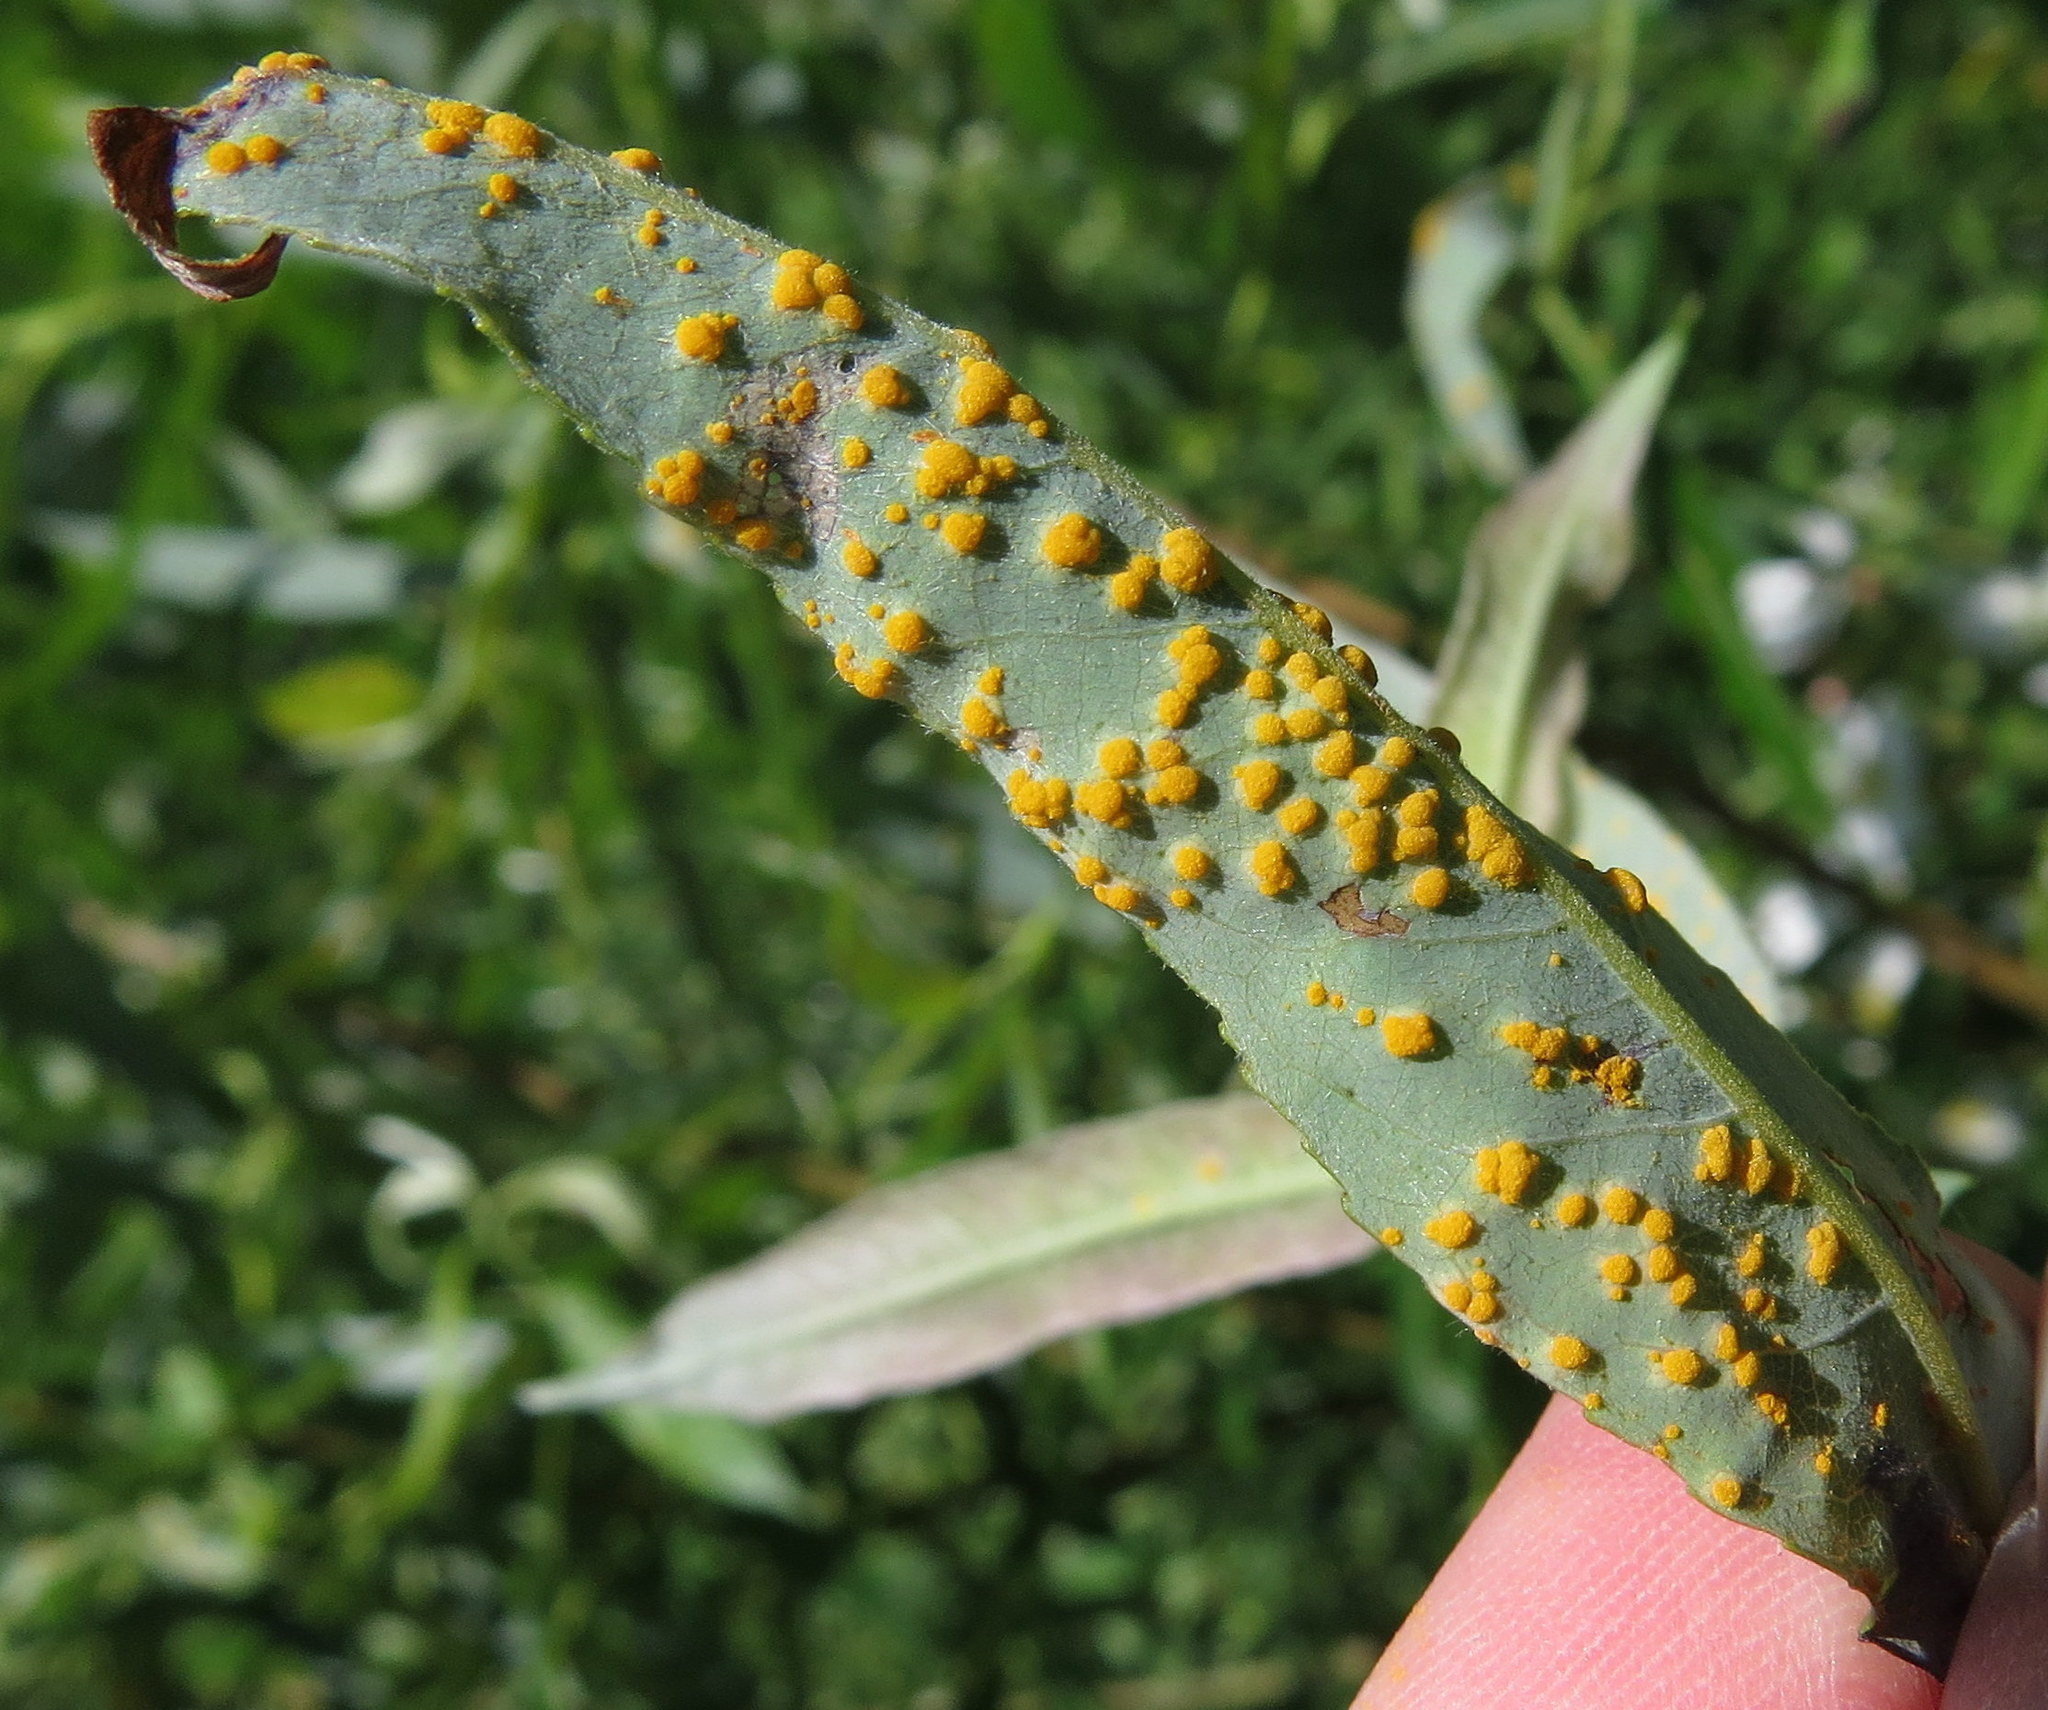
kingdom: Fungi
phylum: Basidiomycota
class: Pucciniomycetes
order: Pucciniales
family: Melampsoraceae
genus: Melampsora
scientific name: Melampsora epitea
